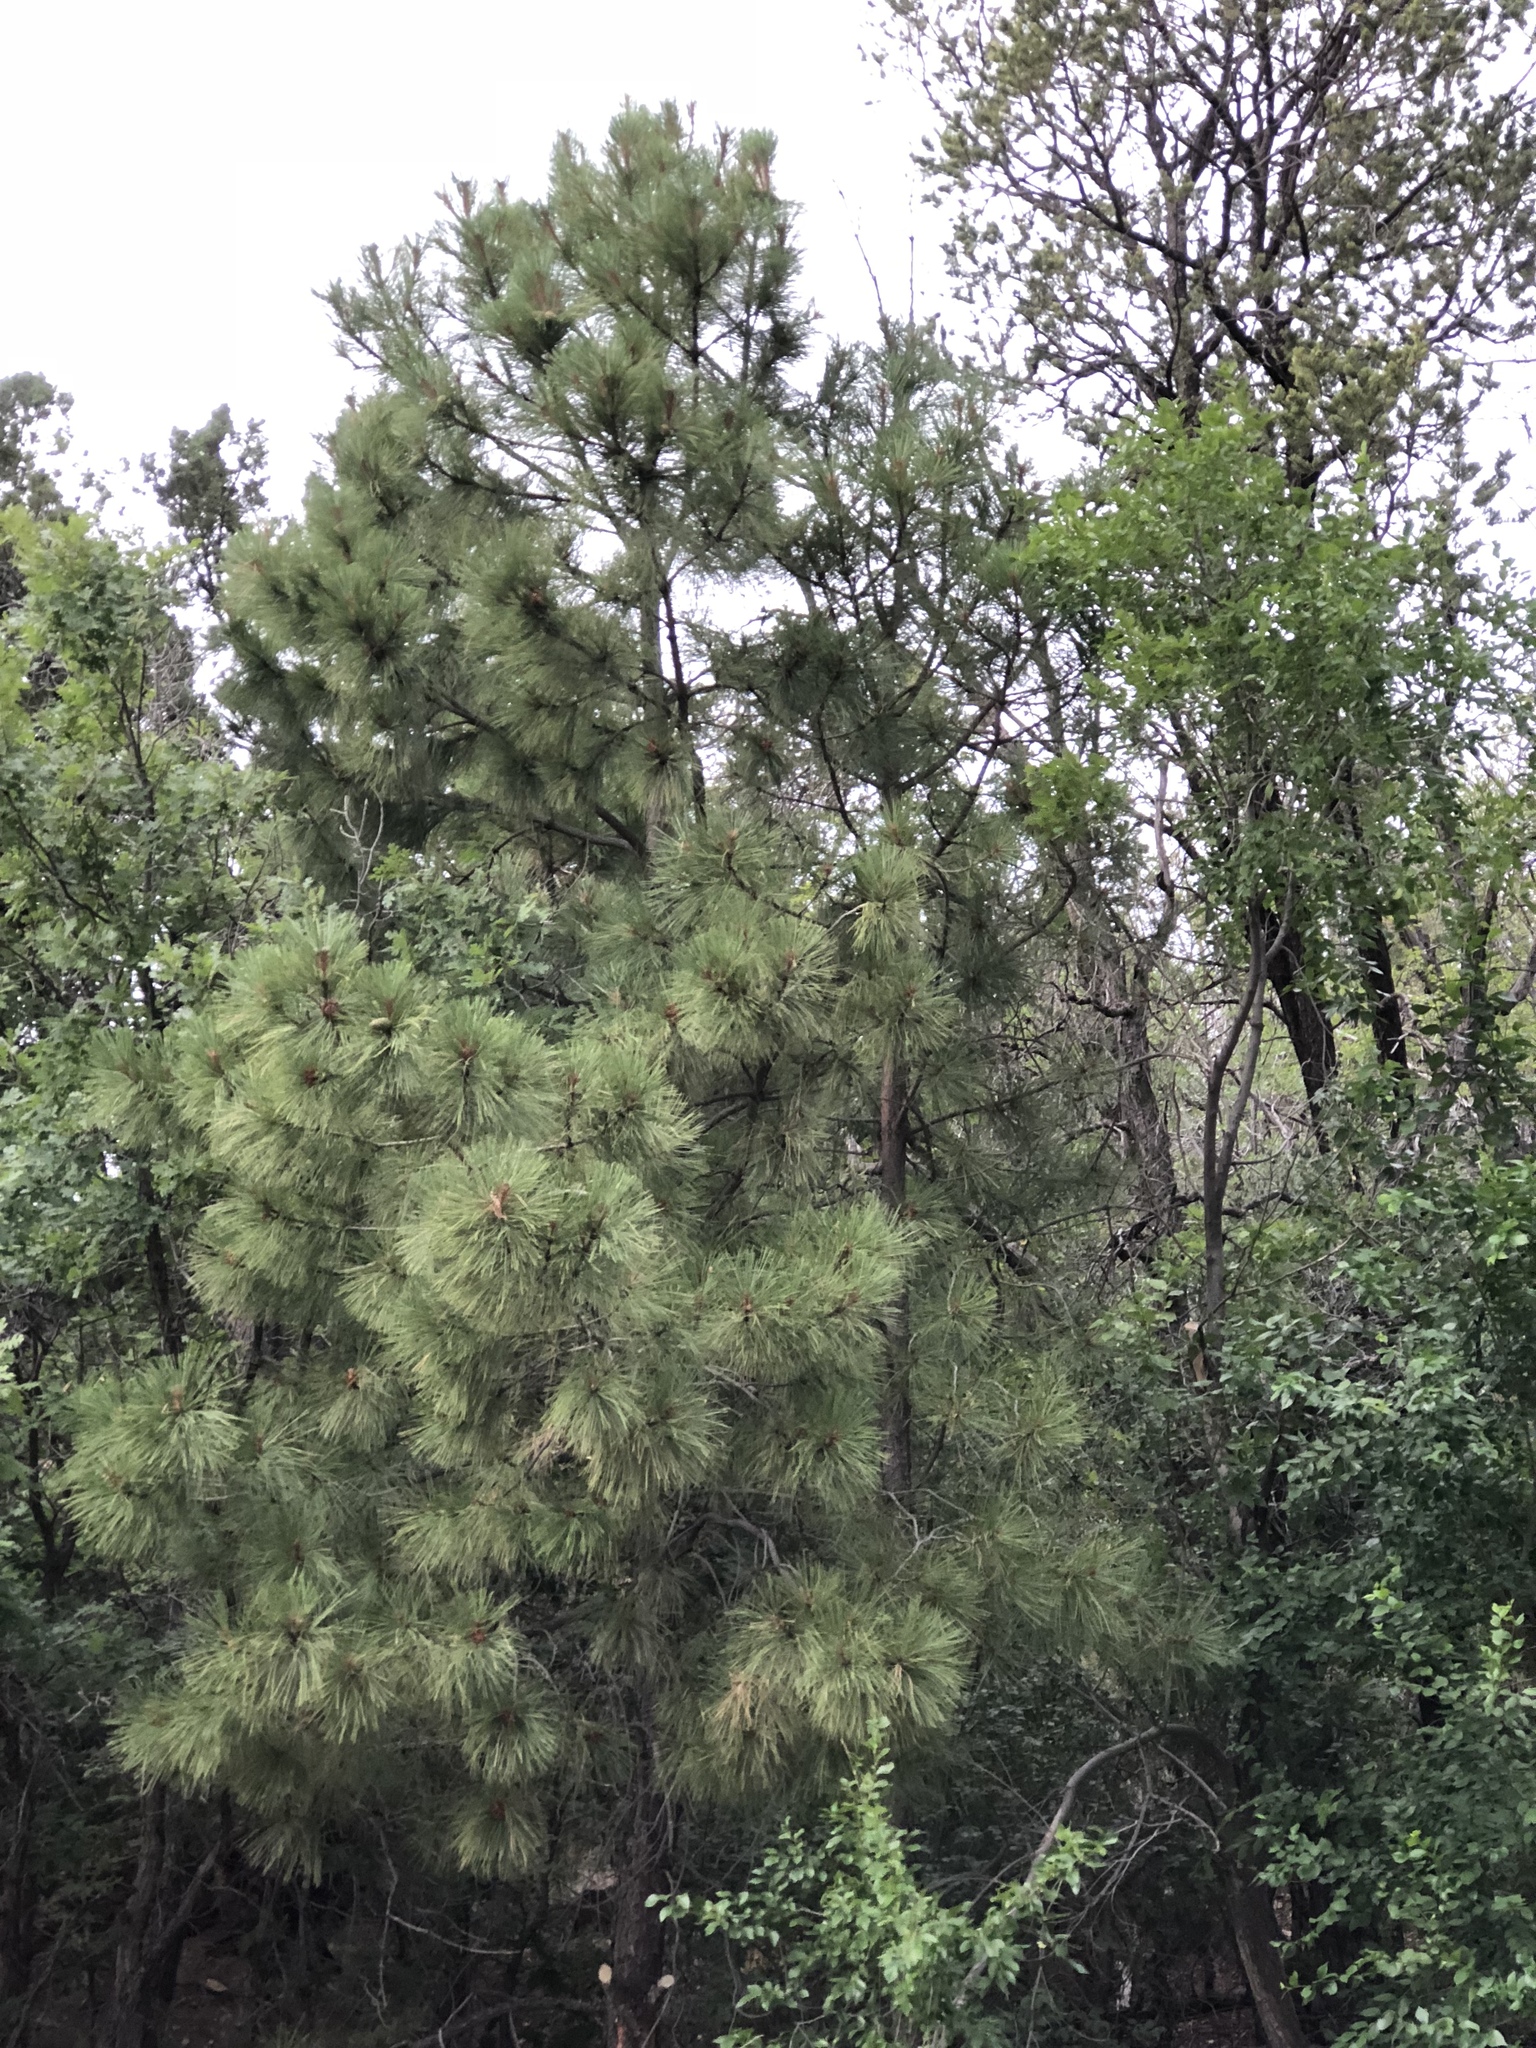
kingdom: Plantae
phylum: Tracheophyta
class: Pinopsida
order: Pinales
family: Pinaceae
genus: Pinus
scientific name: Pinus ponderosa
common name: Western yellow-pine
